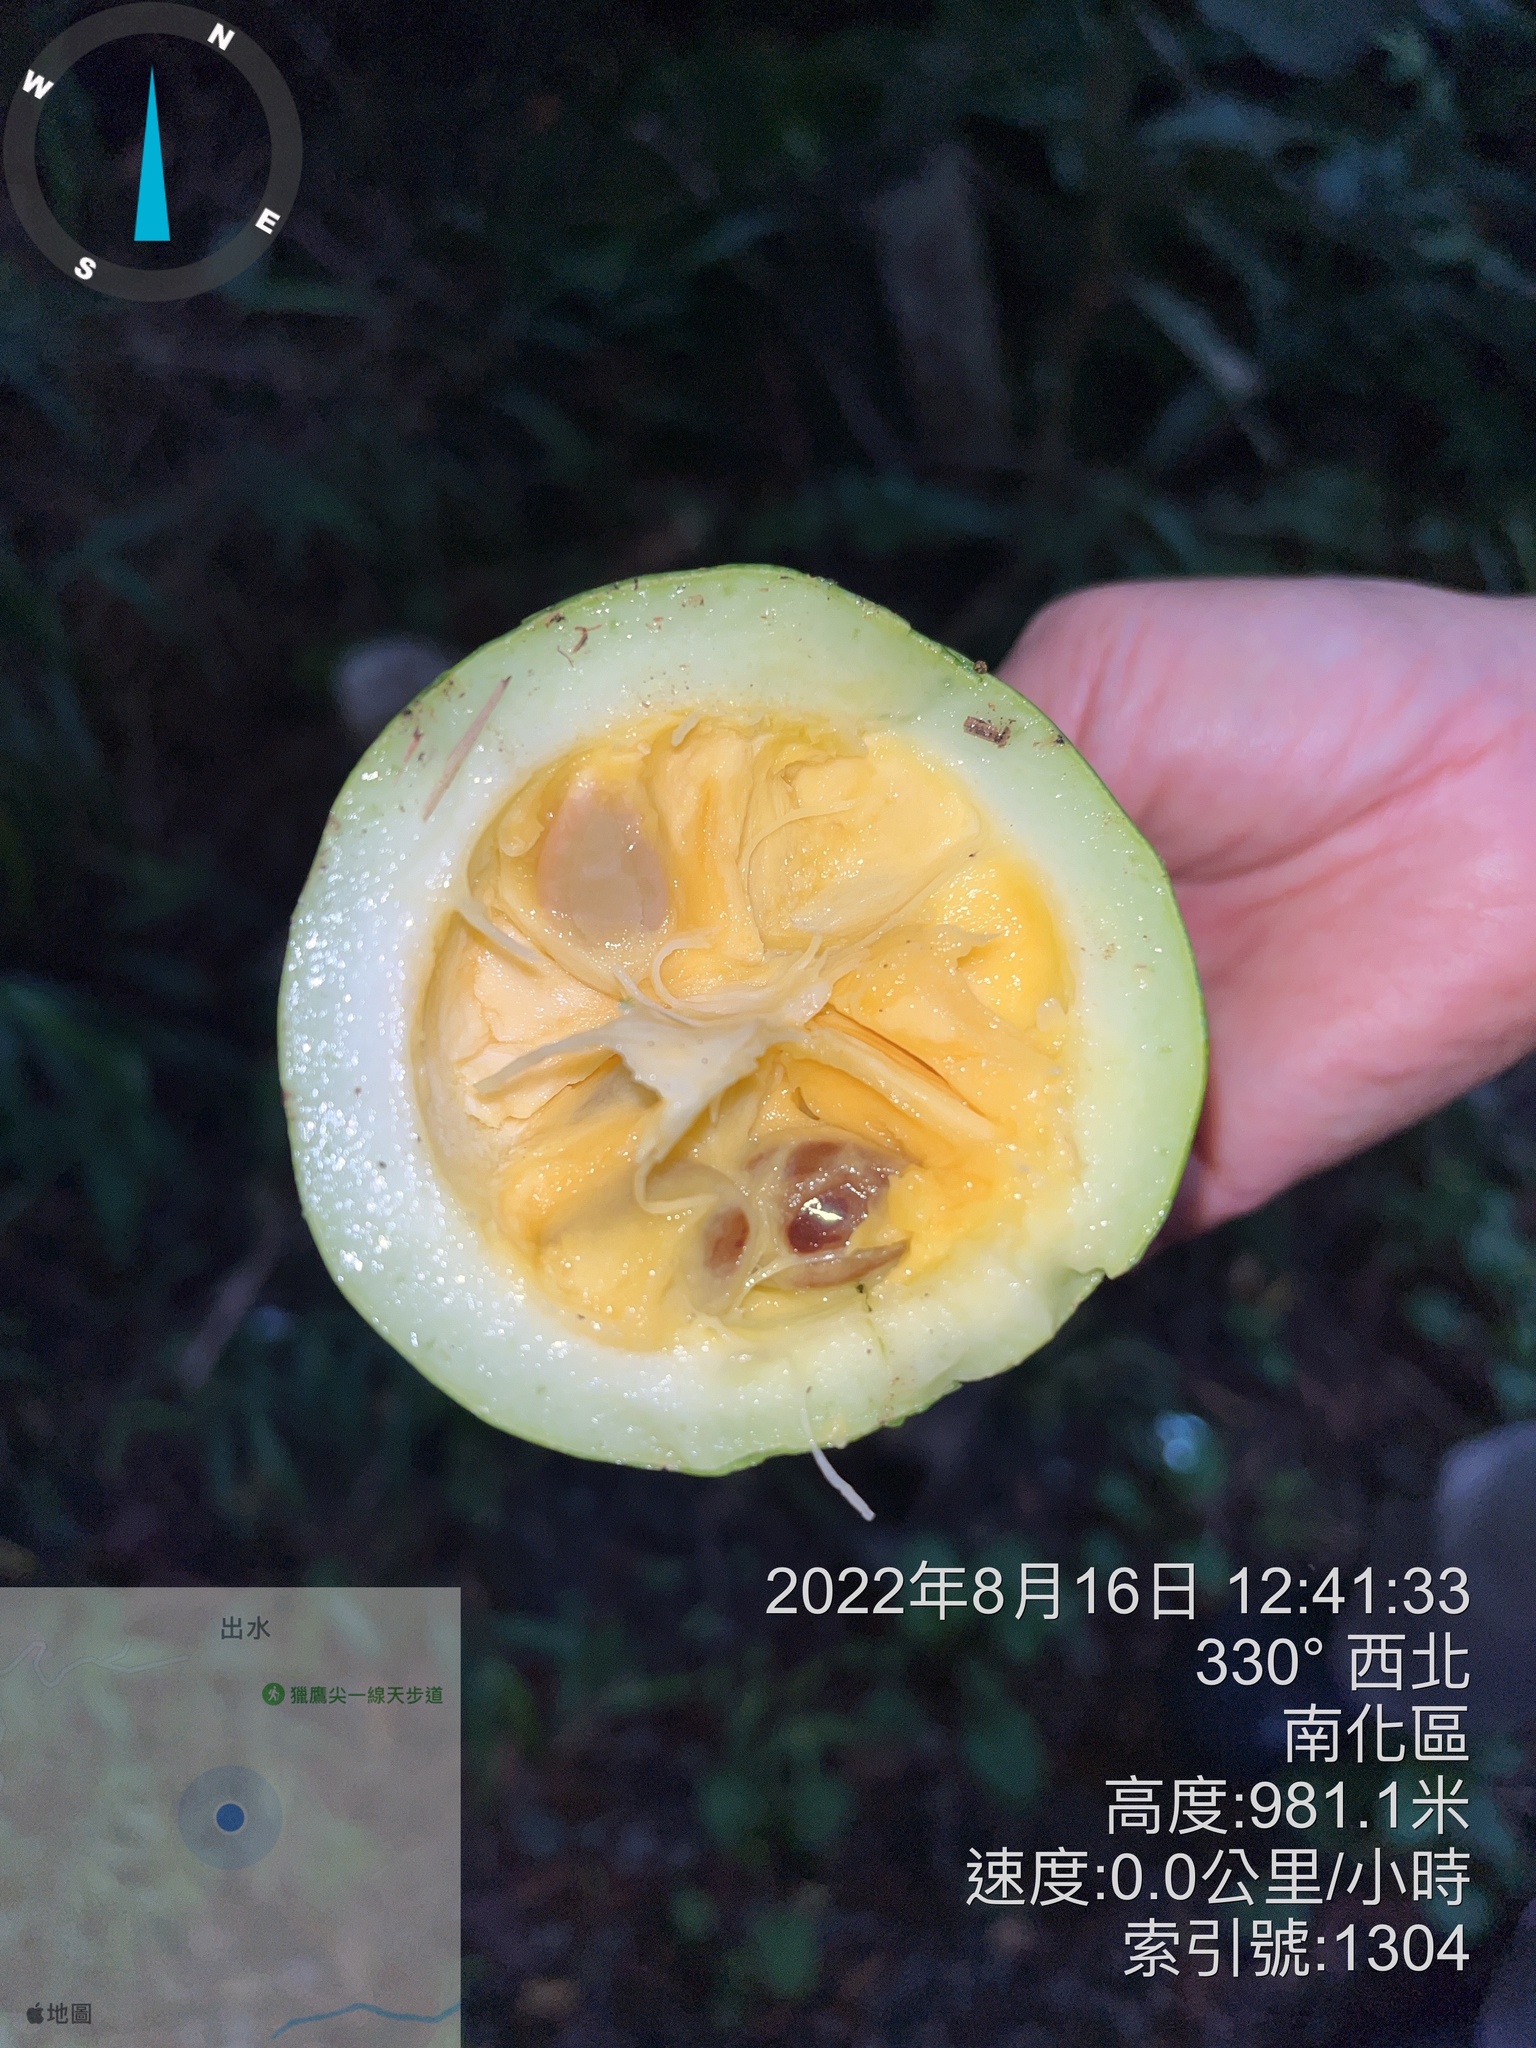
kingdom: Plantae
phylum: Tracheophyta
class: Magnoliopsida
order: Cucurbitales
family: Cucurbitaceae
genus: Trichosanthes
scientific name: Trichosanthes homophylla
